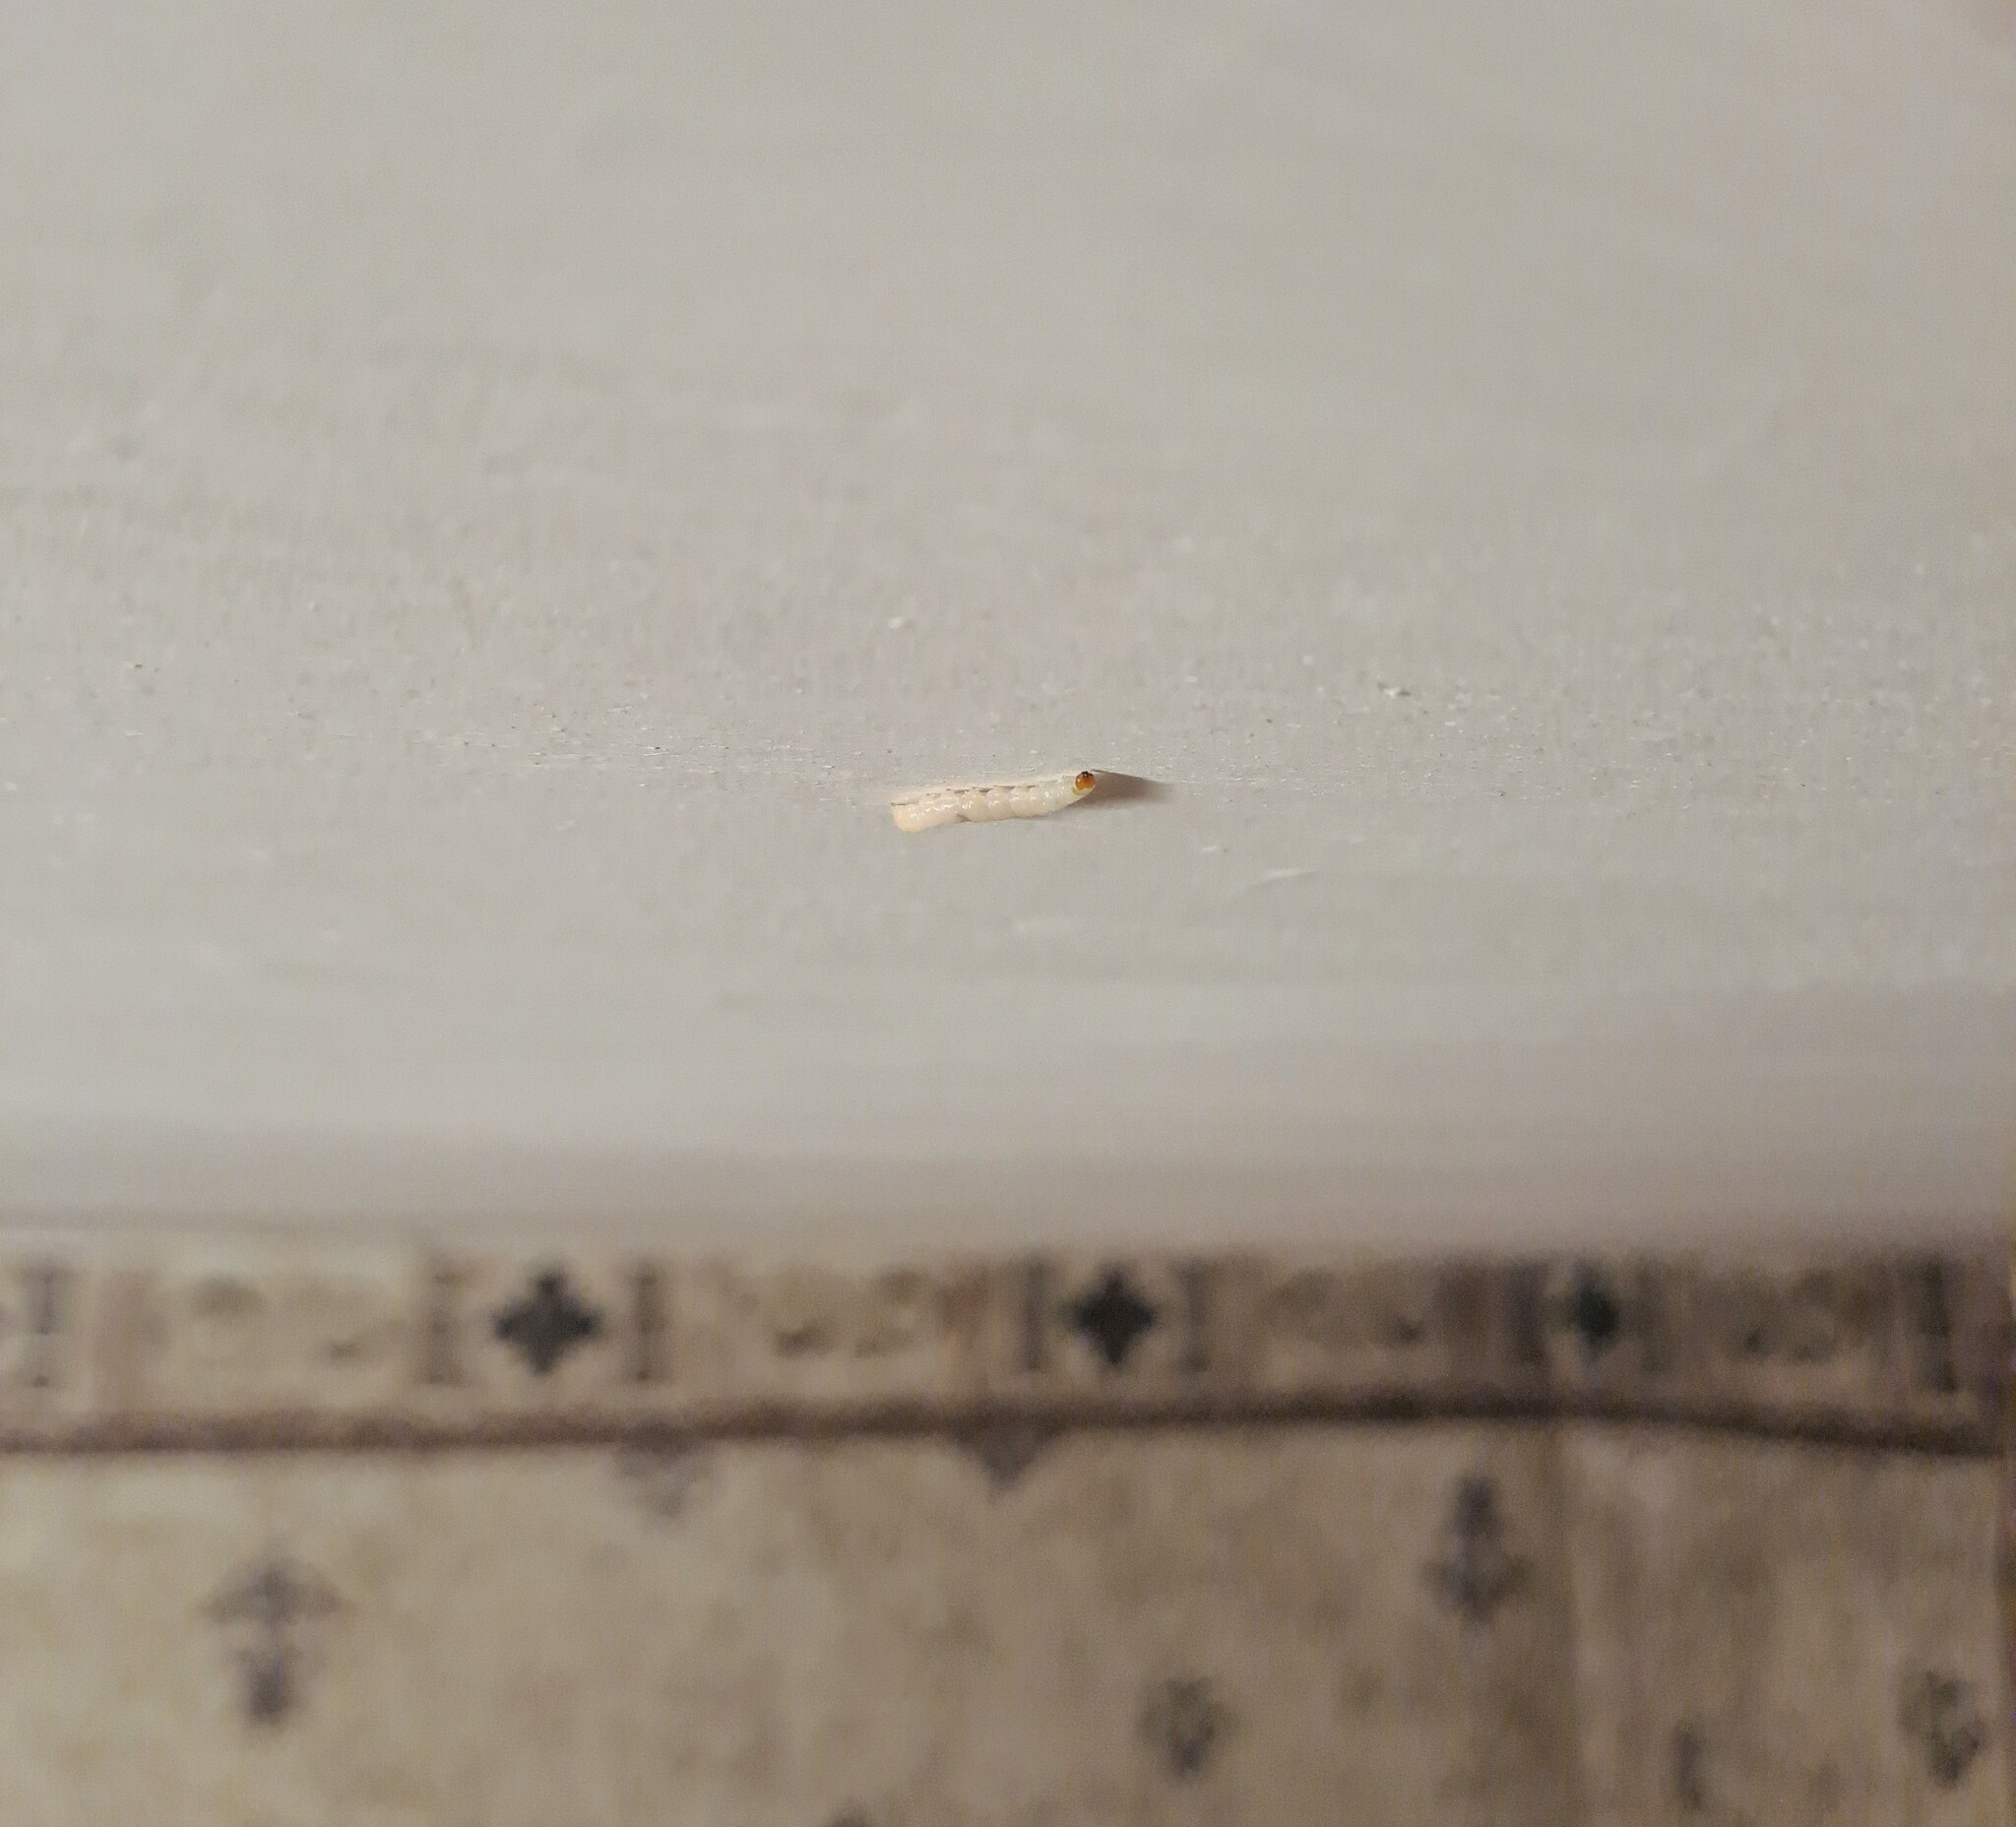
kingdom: Animalia
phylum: Arthropoda
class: Insecta
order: Lepidoptera
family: Pyralidae
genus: Plodia
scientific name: Plodia interpunctella
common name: Indian meal moth
